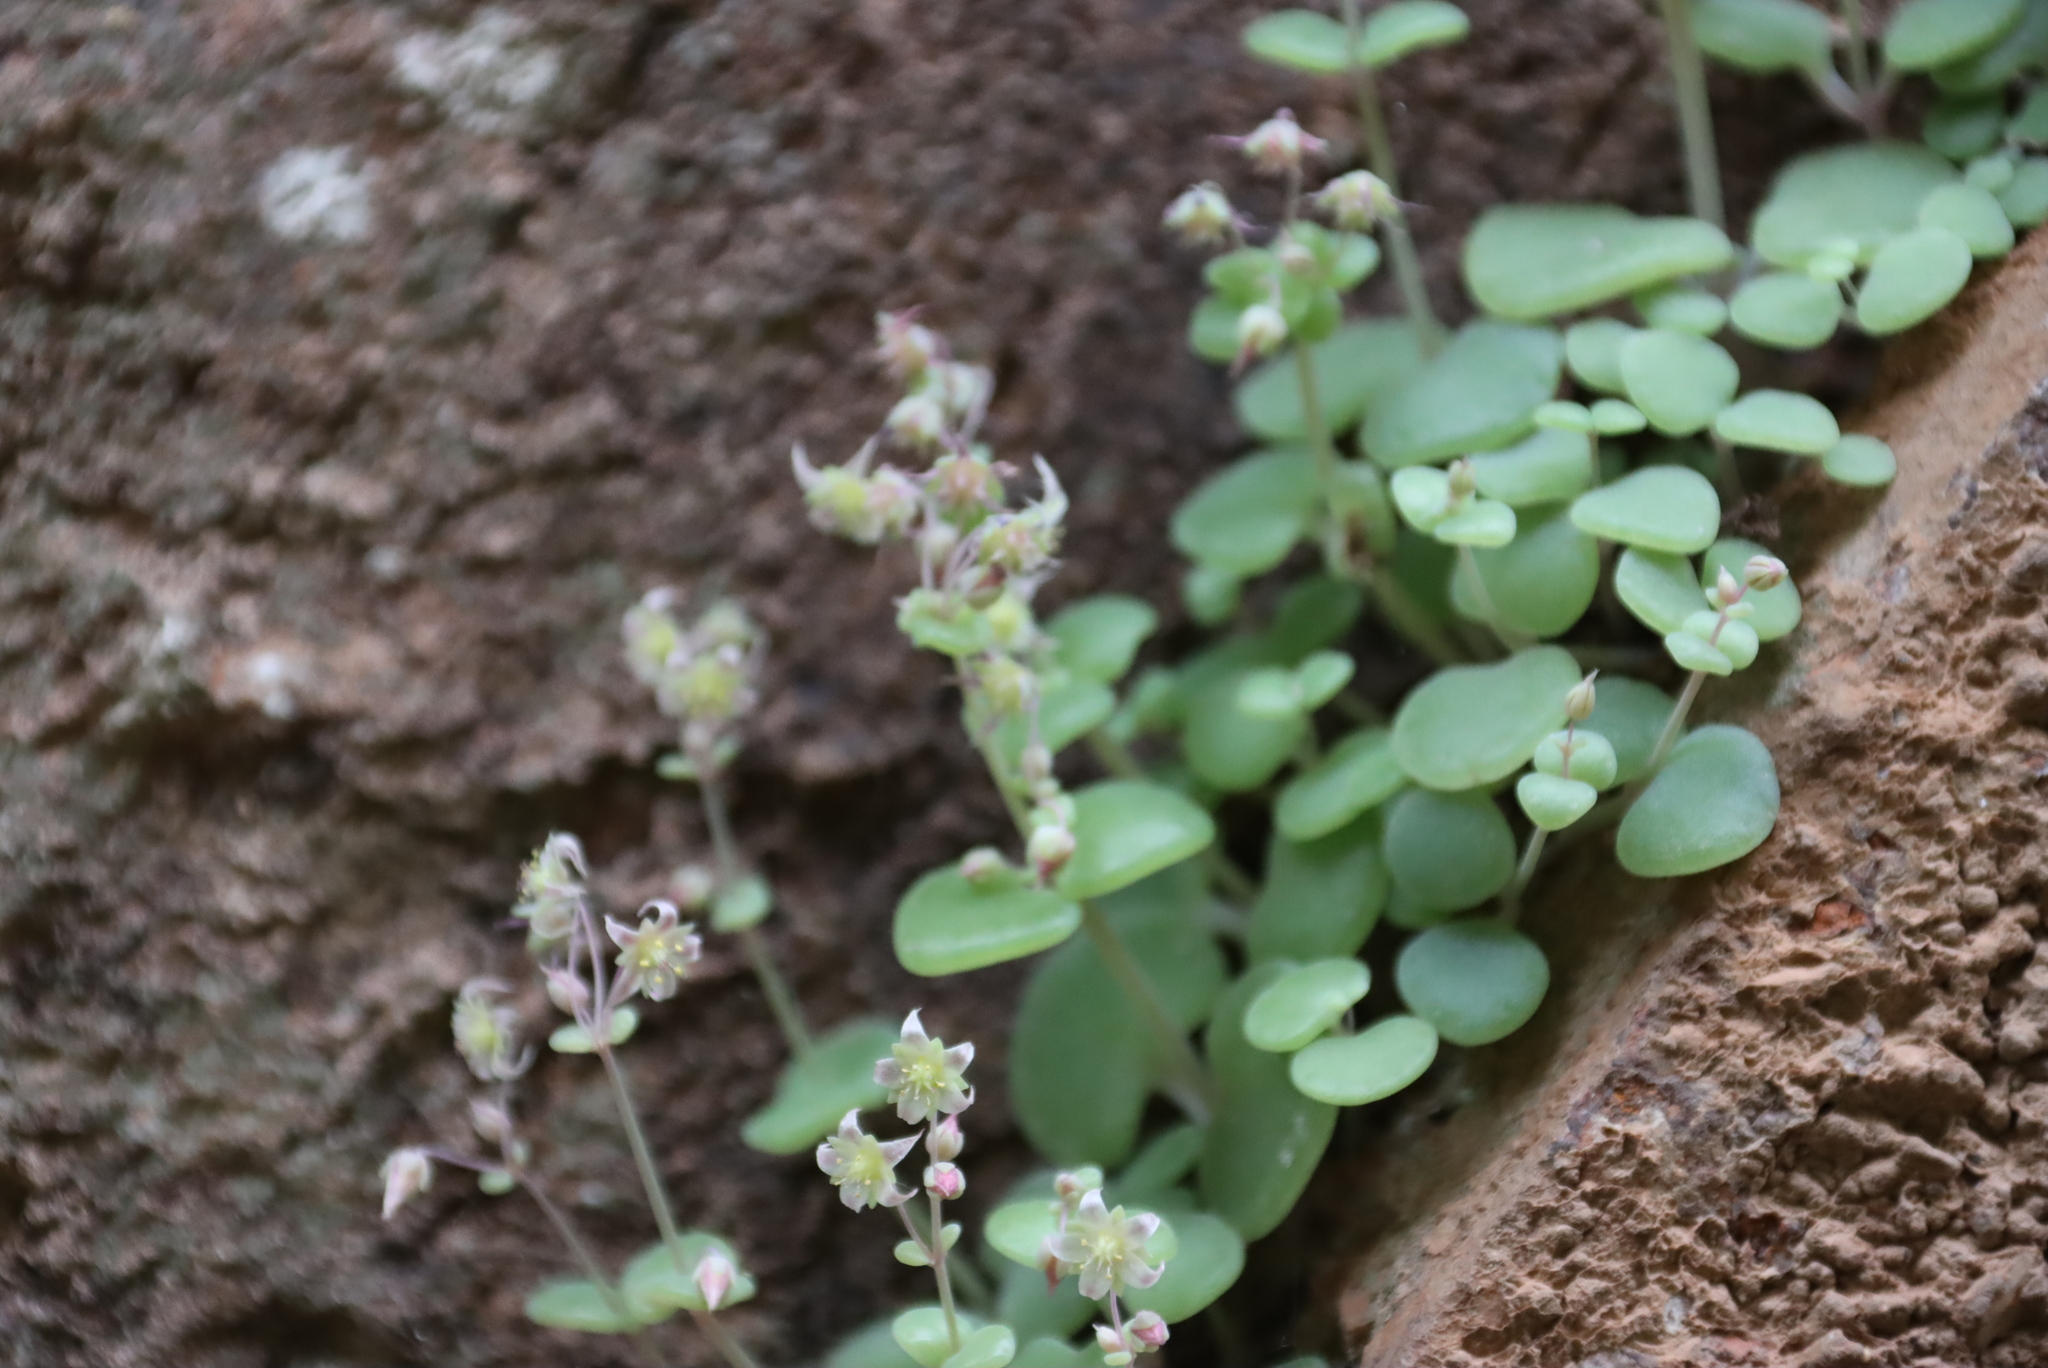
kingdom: Plantae
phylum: Tracheophyta
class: Magnoliopsida
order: Saxifragales
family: Crassulaceae
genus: Crassula
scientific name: Crassula nemorosa
